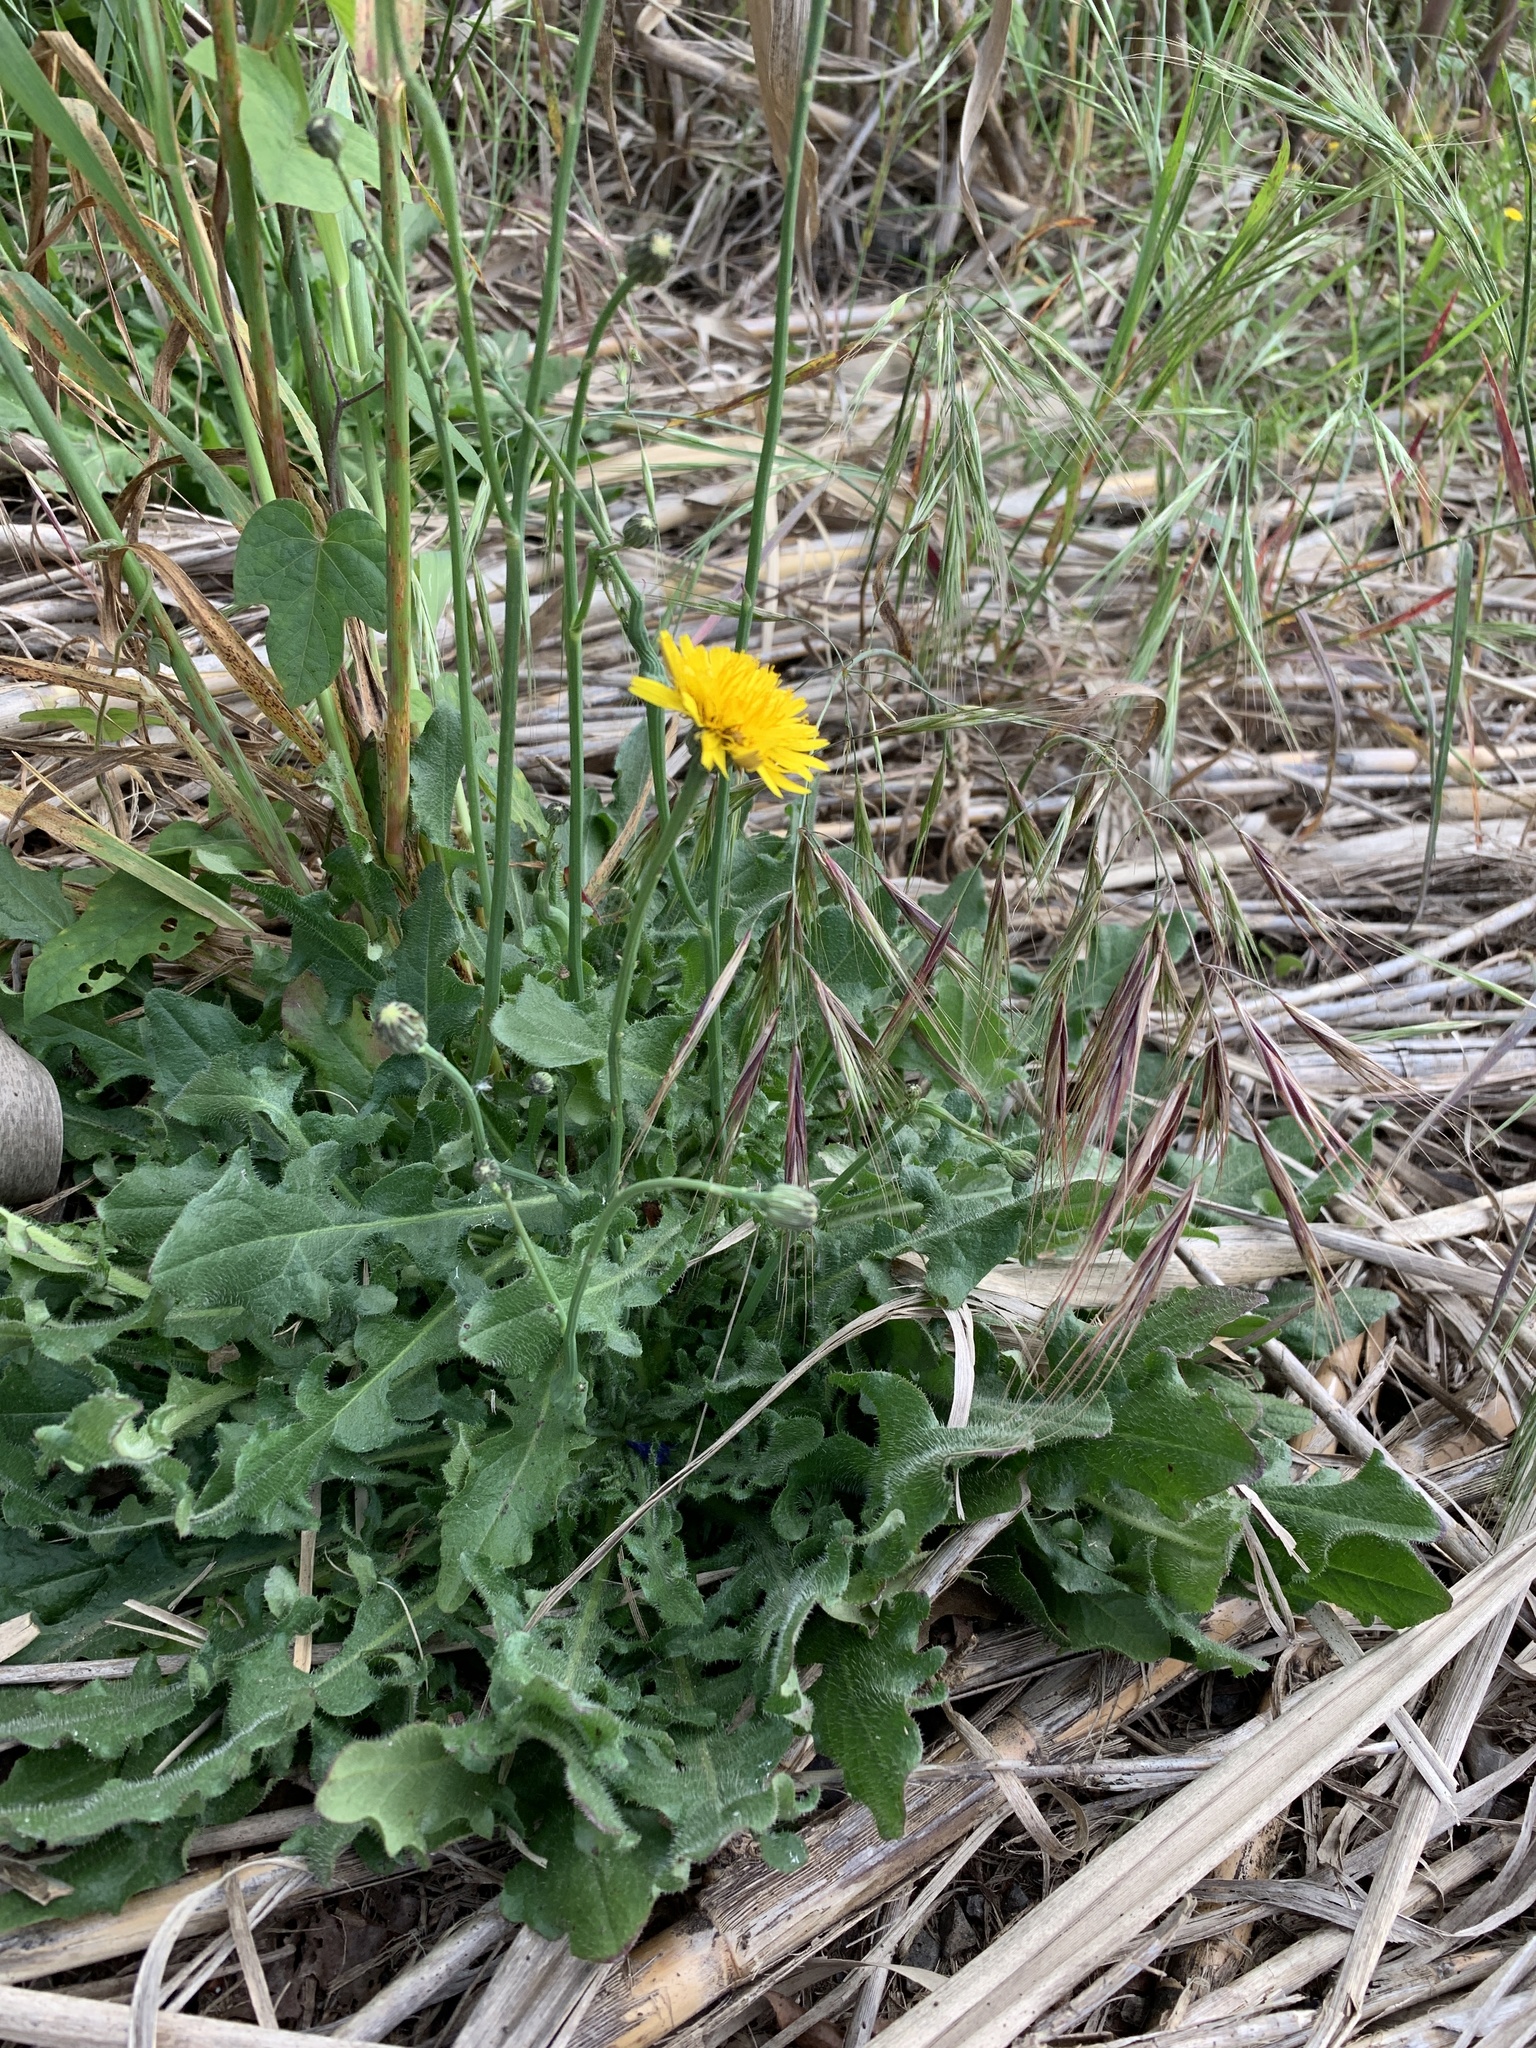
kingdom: Plantae
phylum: Tracheophyta
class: Magnoliopsida
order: Asterales
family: Asteraceae
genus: Hypochaeris
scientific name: Hypochaeris radicata
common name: Flatweed
